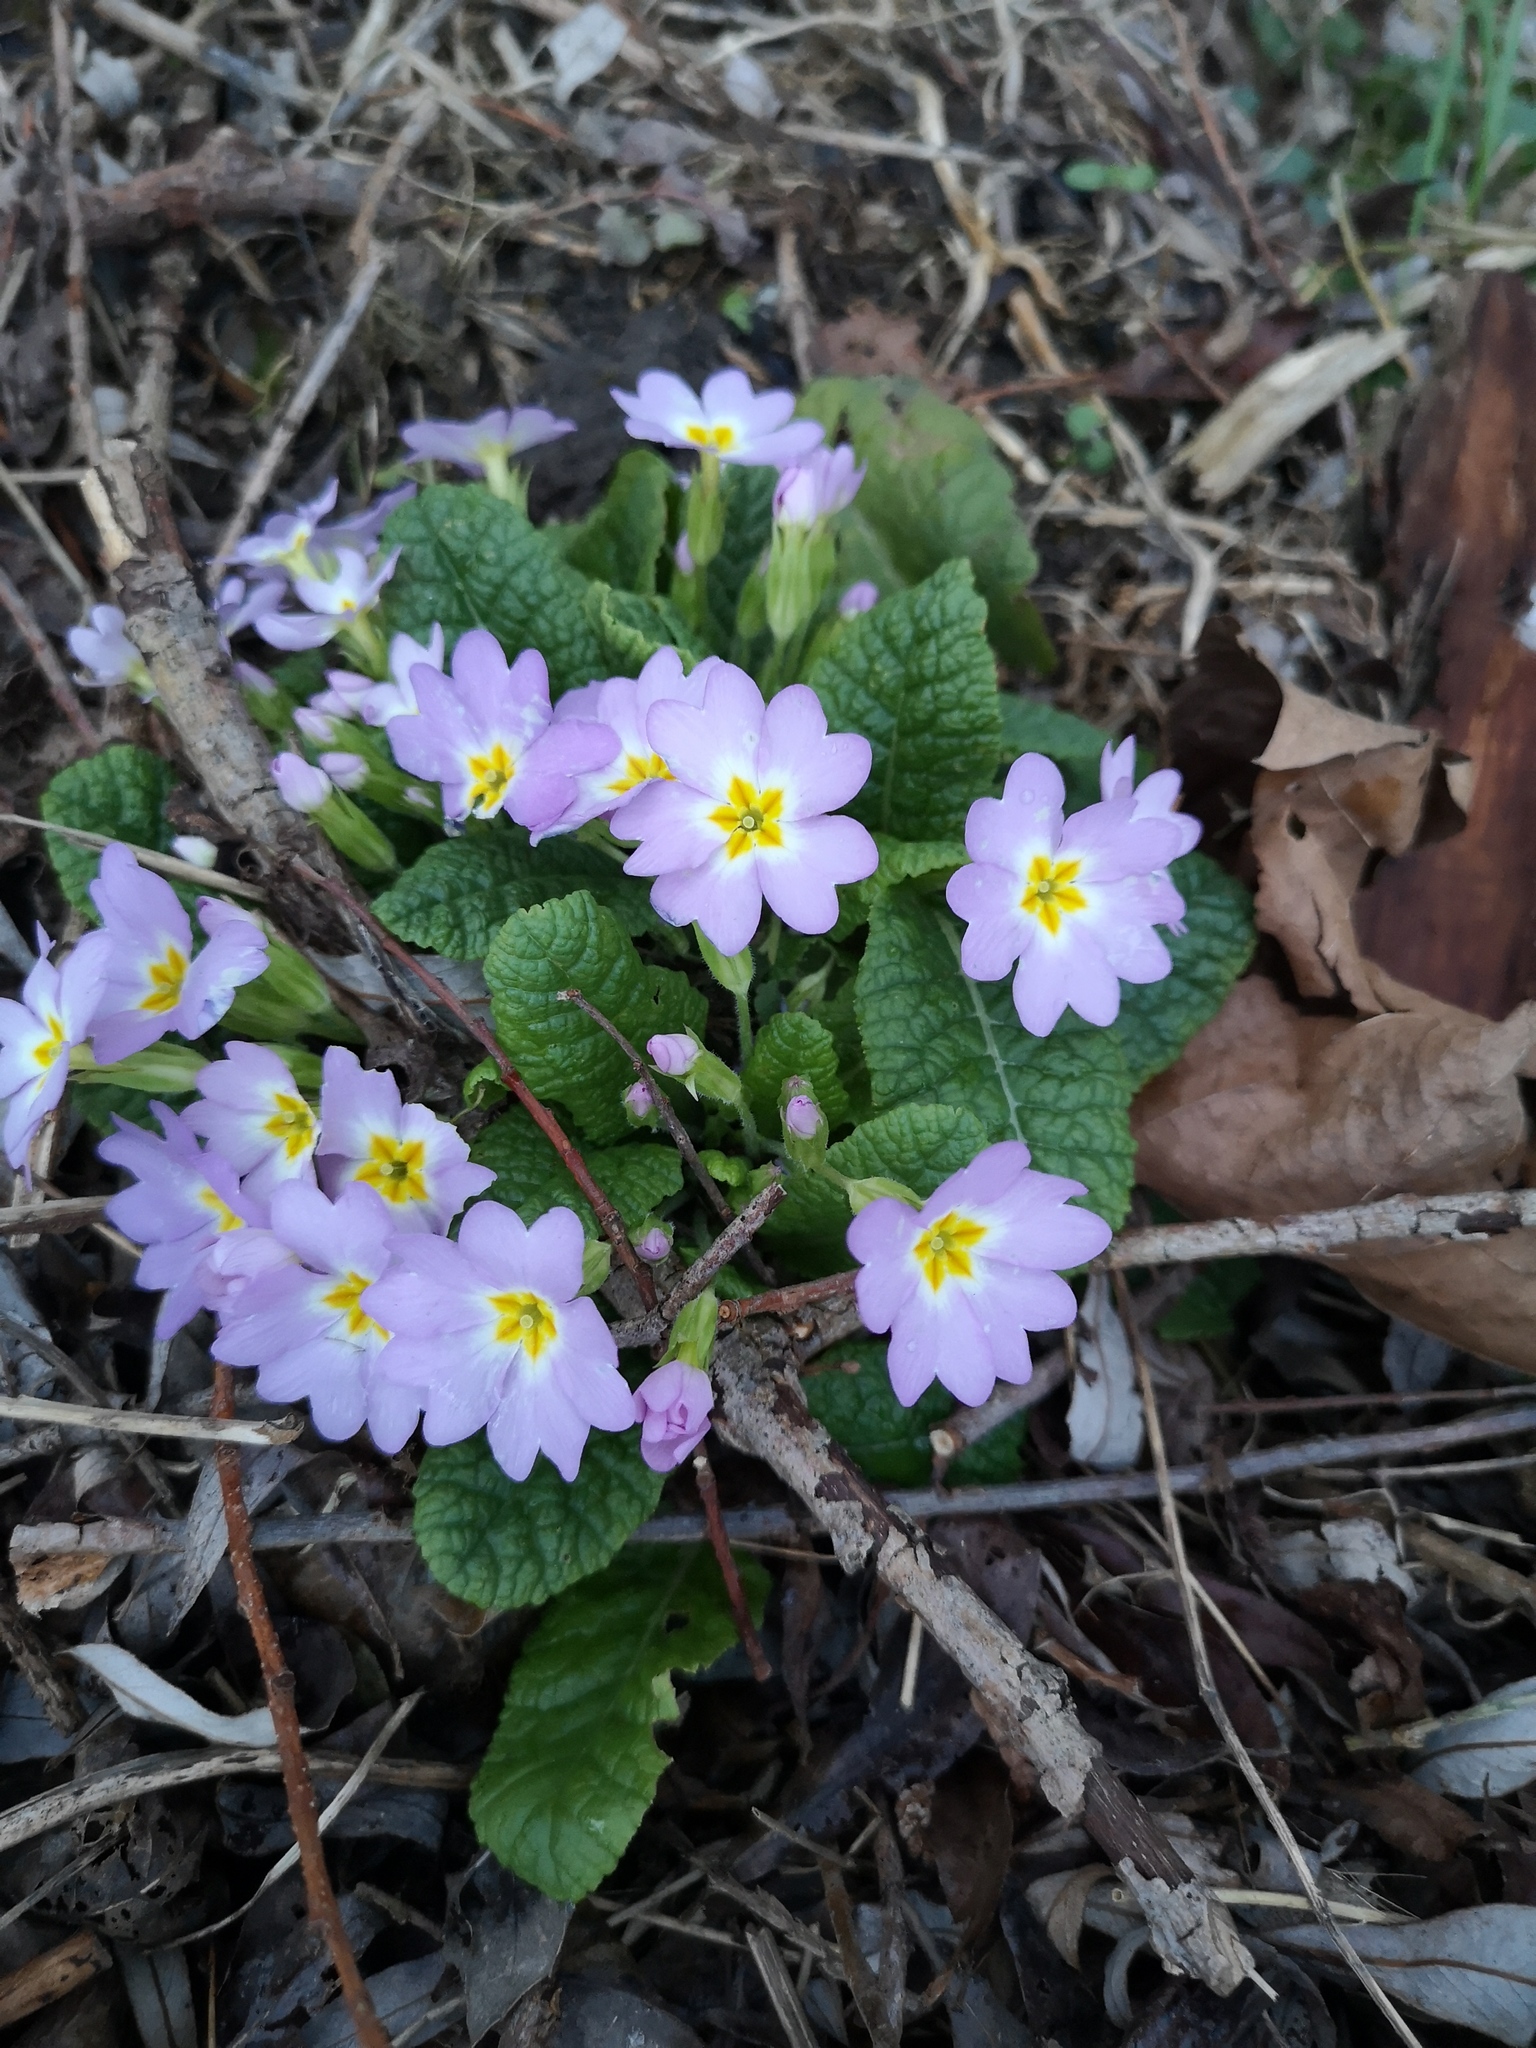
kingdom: Plantae
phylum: Tracheophyta
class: Magnoliopsida
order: Ericales
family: Primulaceae
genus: Primula
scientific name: Primula vulgaris
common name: Primrose
